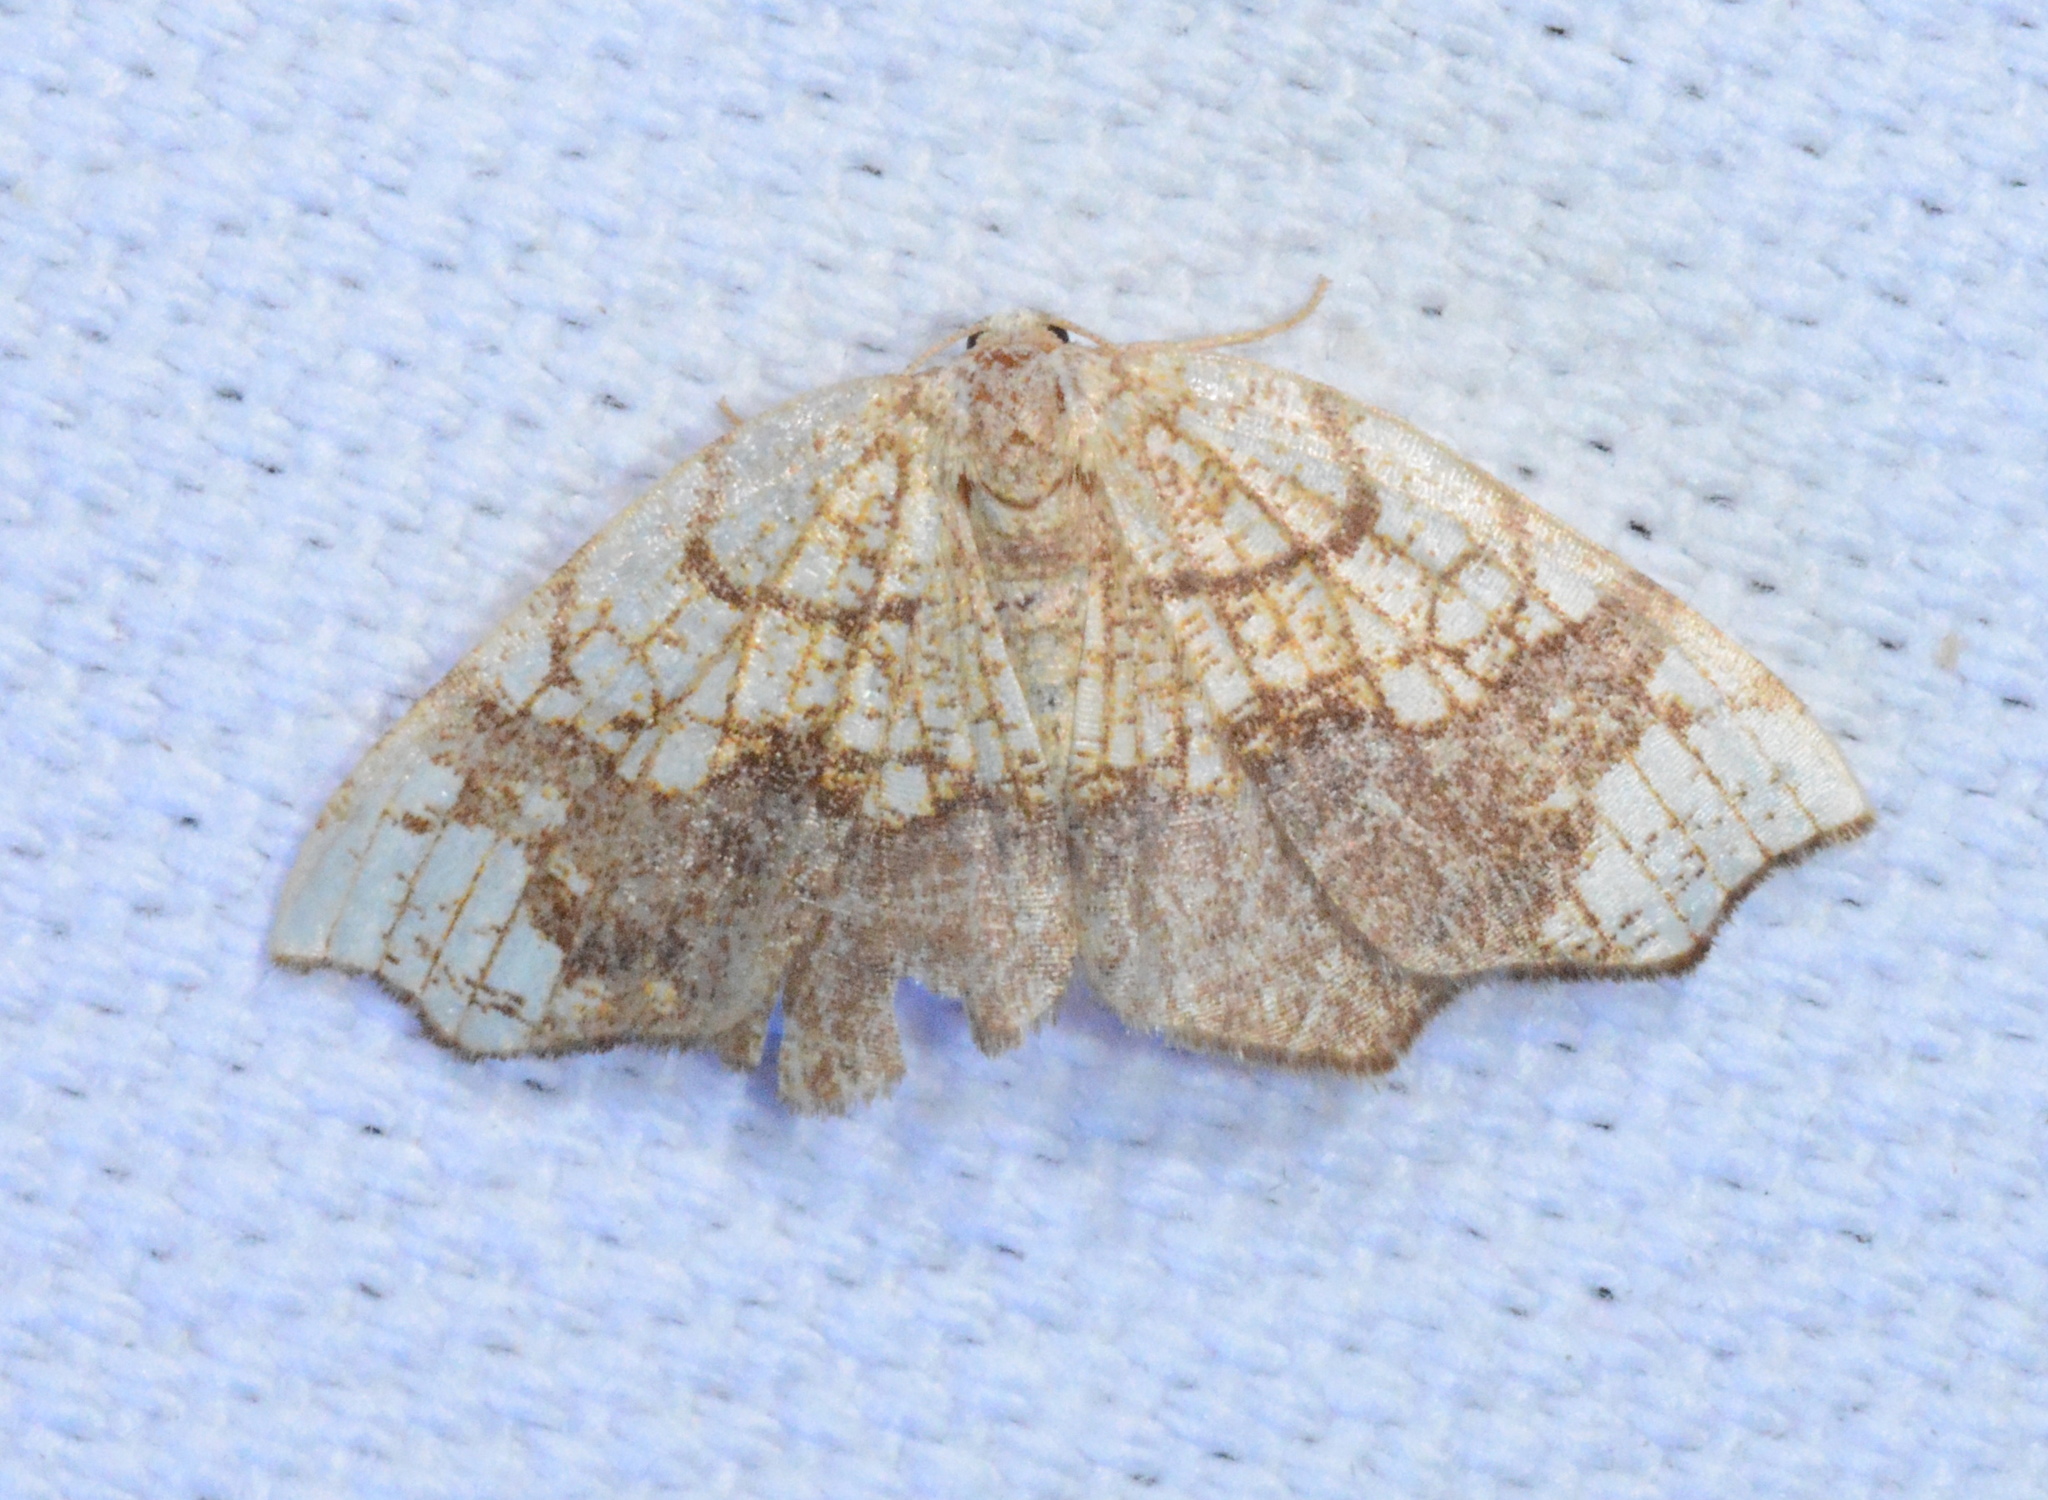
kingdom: Animalia
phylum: Arthropoda
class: Insecta
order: Lepidoptera
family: Geometridae
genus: Nematocampa
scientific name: Nematocampa resistaria
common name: Horned spanworm moth
